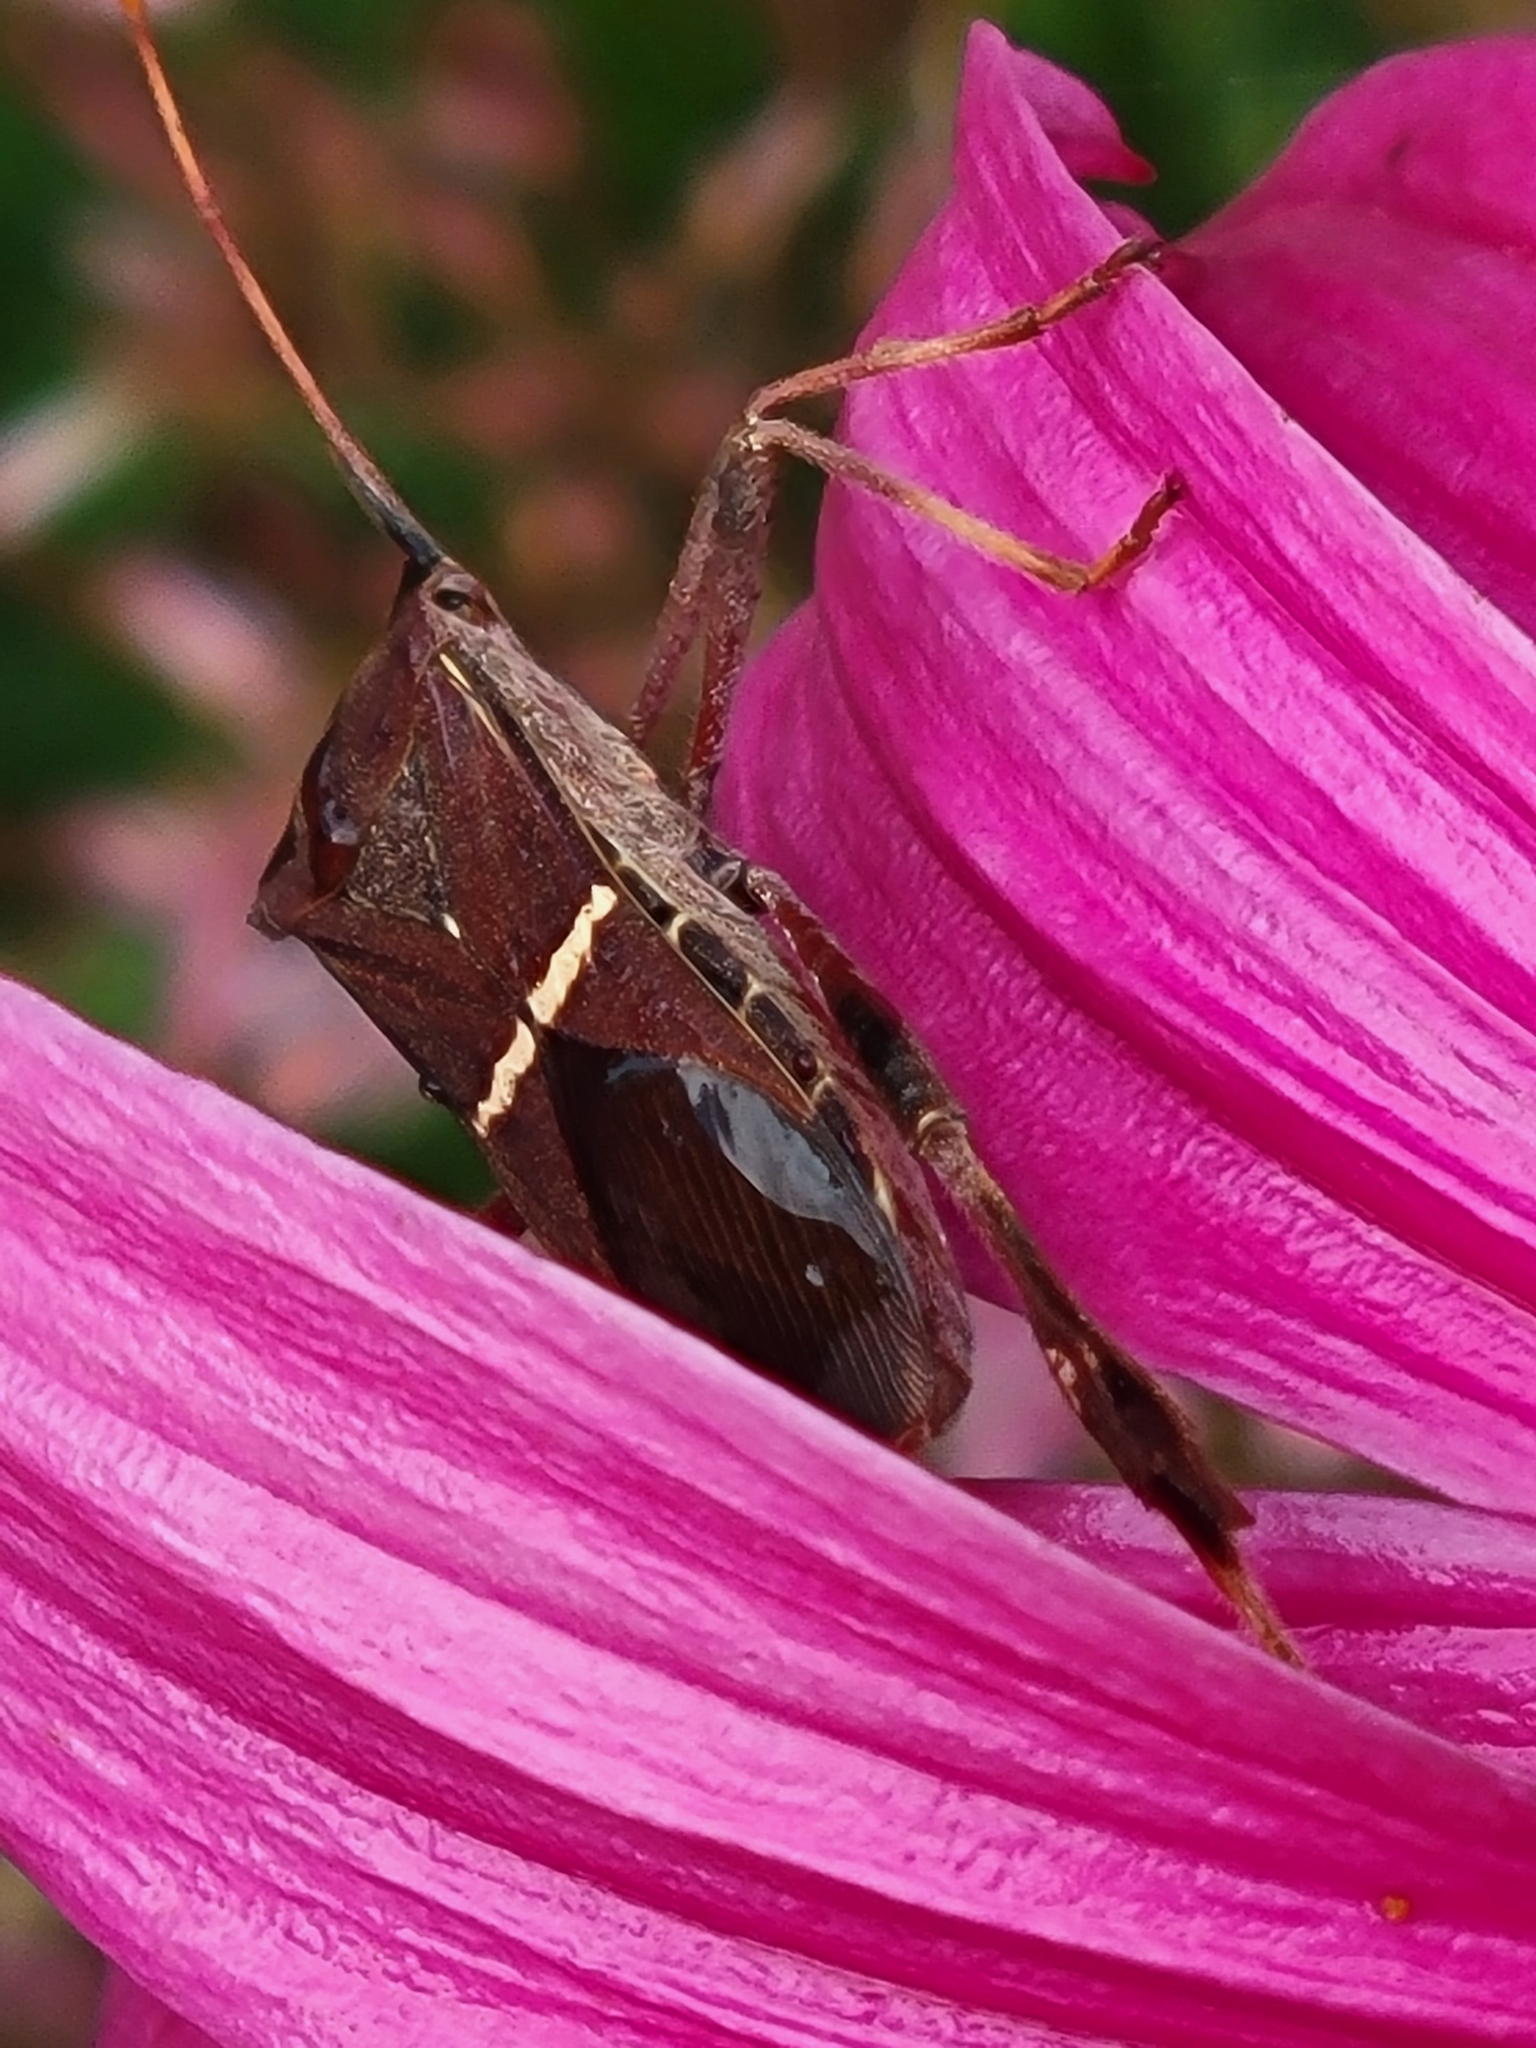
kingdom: Animalia
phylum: Arthropoda
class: Insecta
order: Hemiptera
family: Coreidae
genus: Leptoglossus
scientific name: Leptoglossus phyllopus
